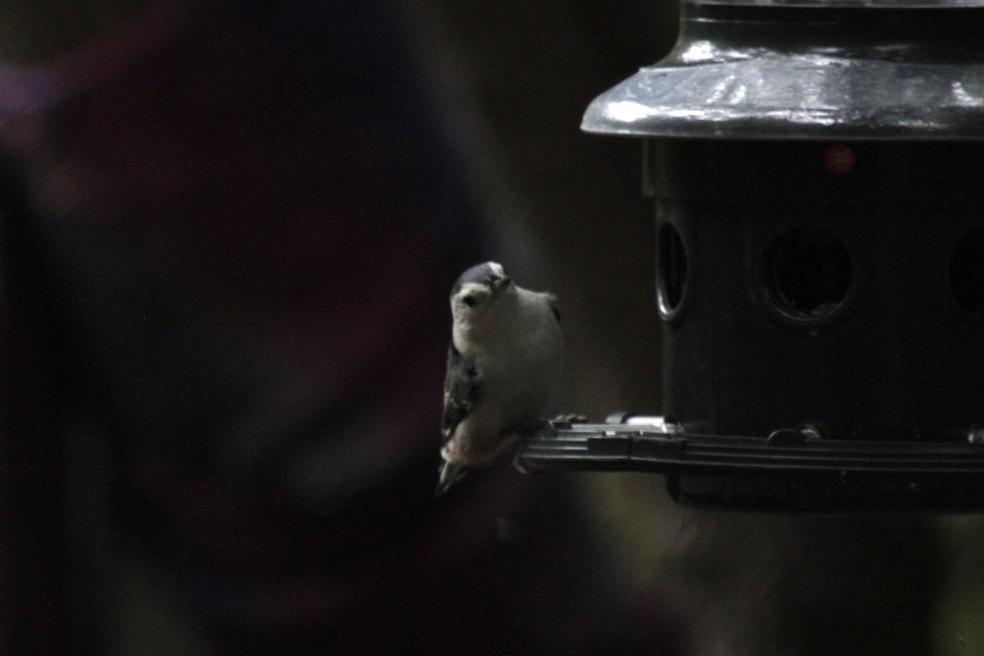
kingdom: Animalia
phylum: Chordata
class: Aves
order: Passeriformes
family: Sittidae
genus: Sitta
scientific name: Sitta carolinensis
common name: White-breasted nuthatch
